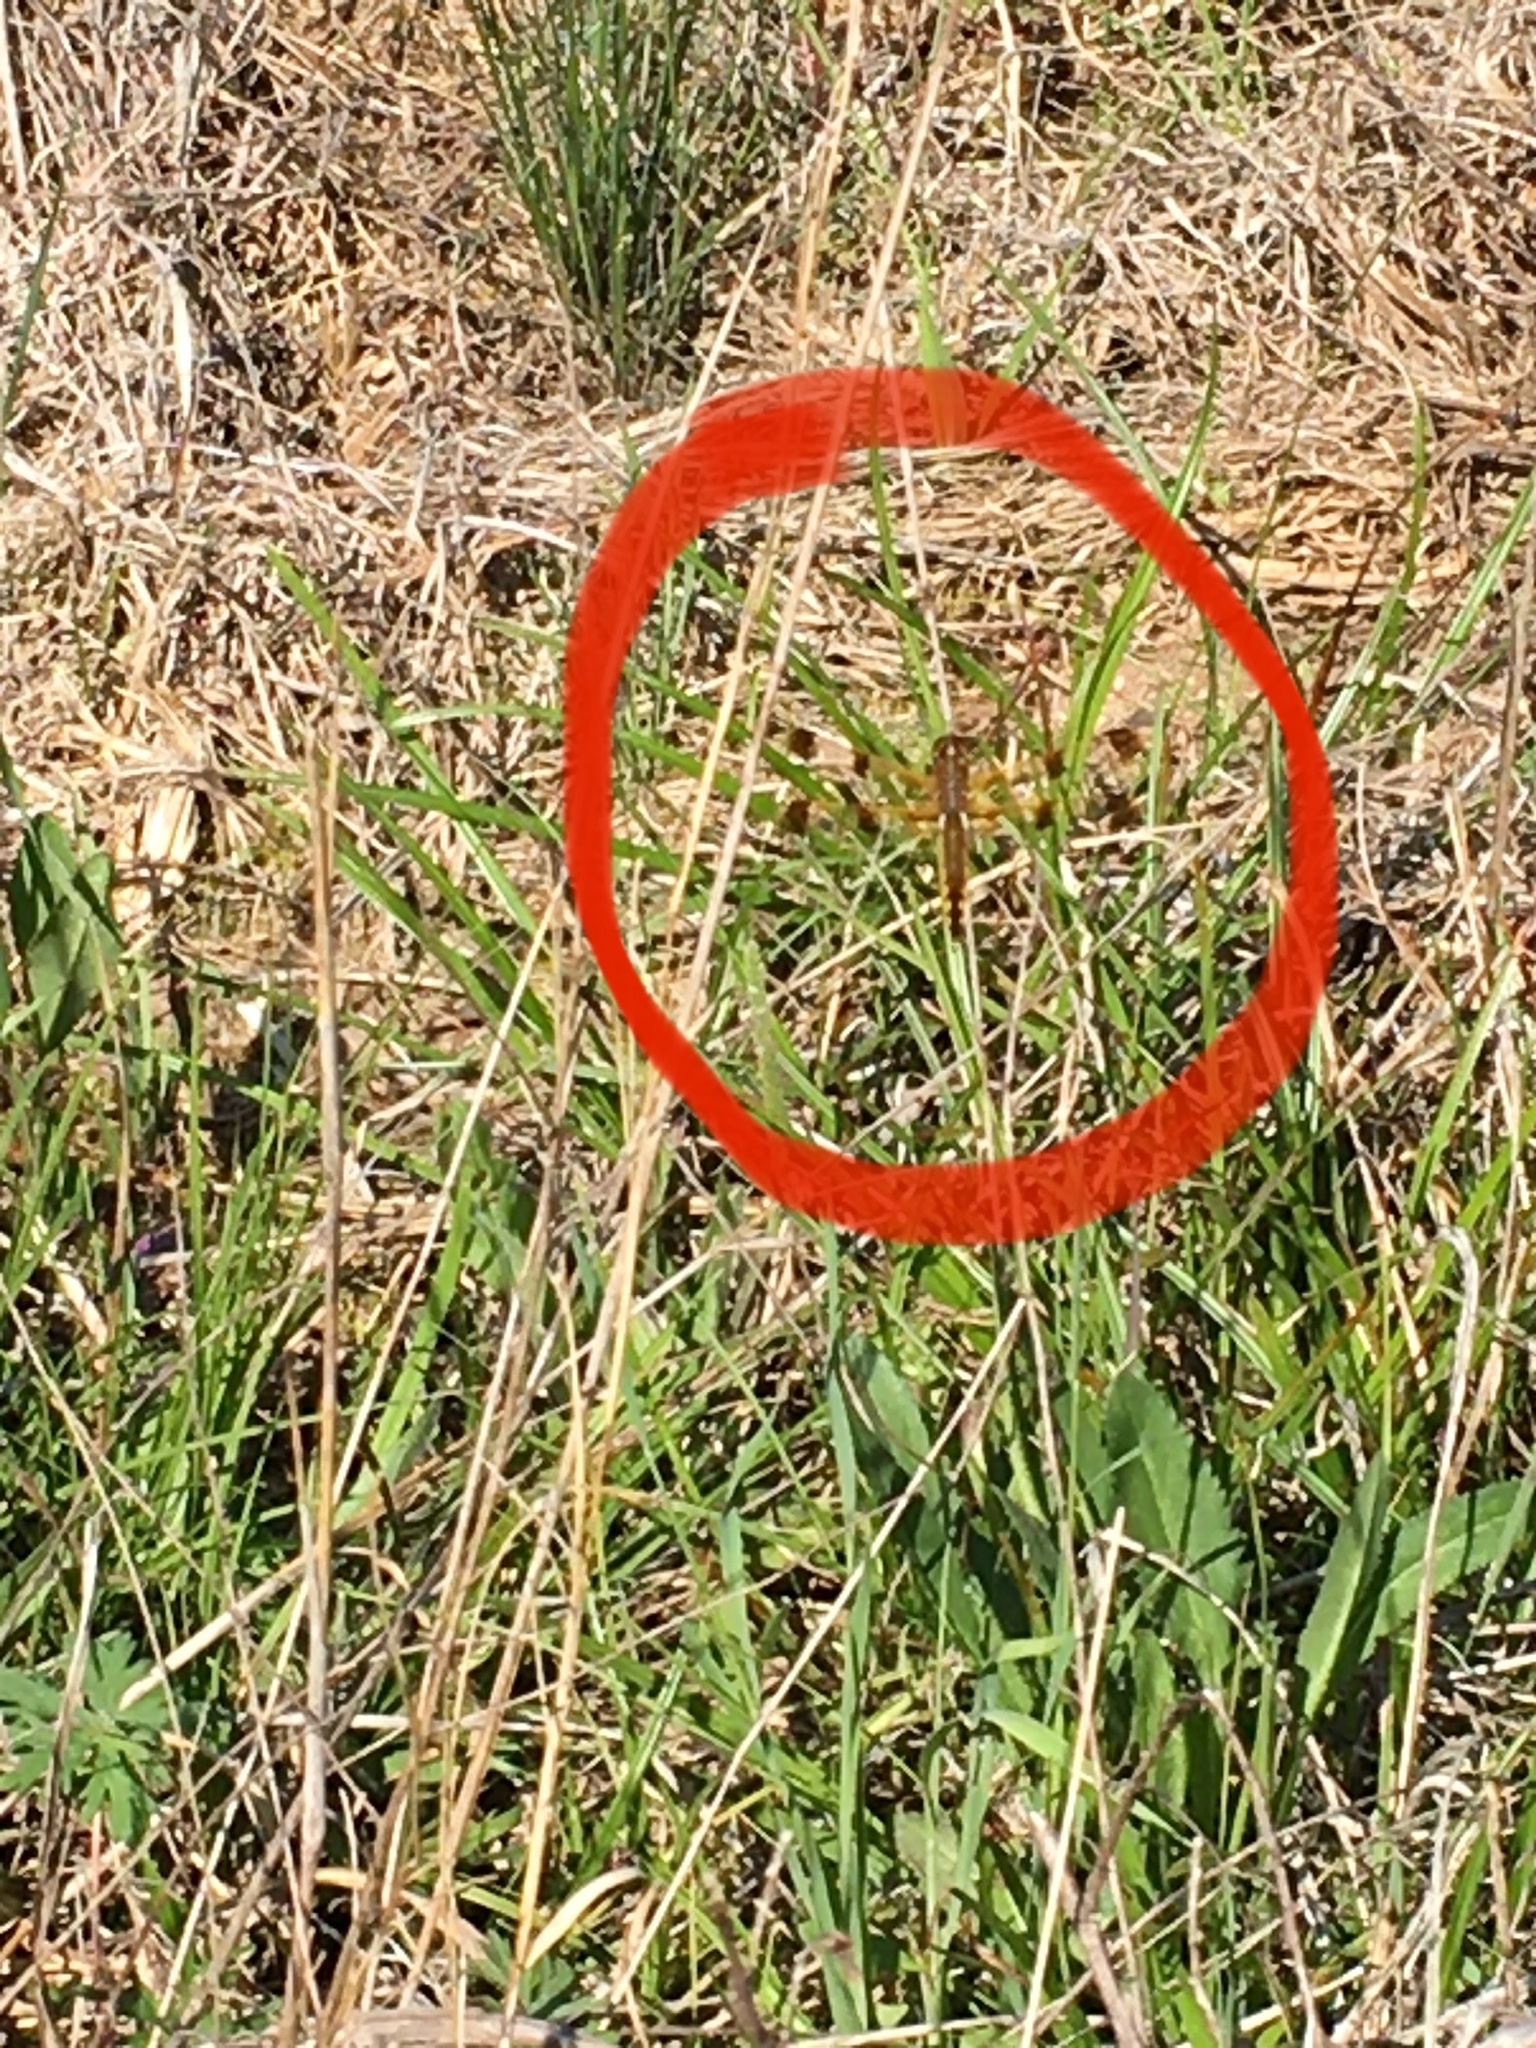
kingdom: Animalia
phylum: Arthropoda
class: Insecta
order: Odonata
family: Libellulidae
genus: Libellula
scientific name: Libellula semifasciata
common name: Painted skimmer
